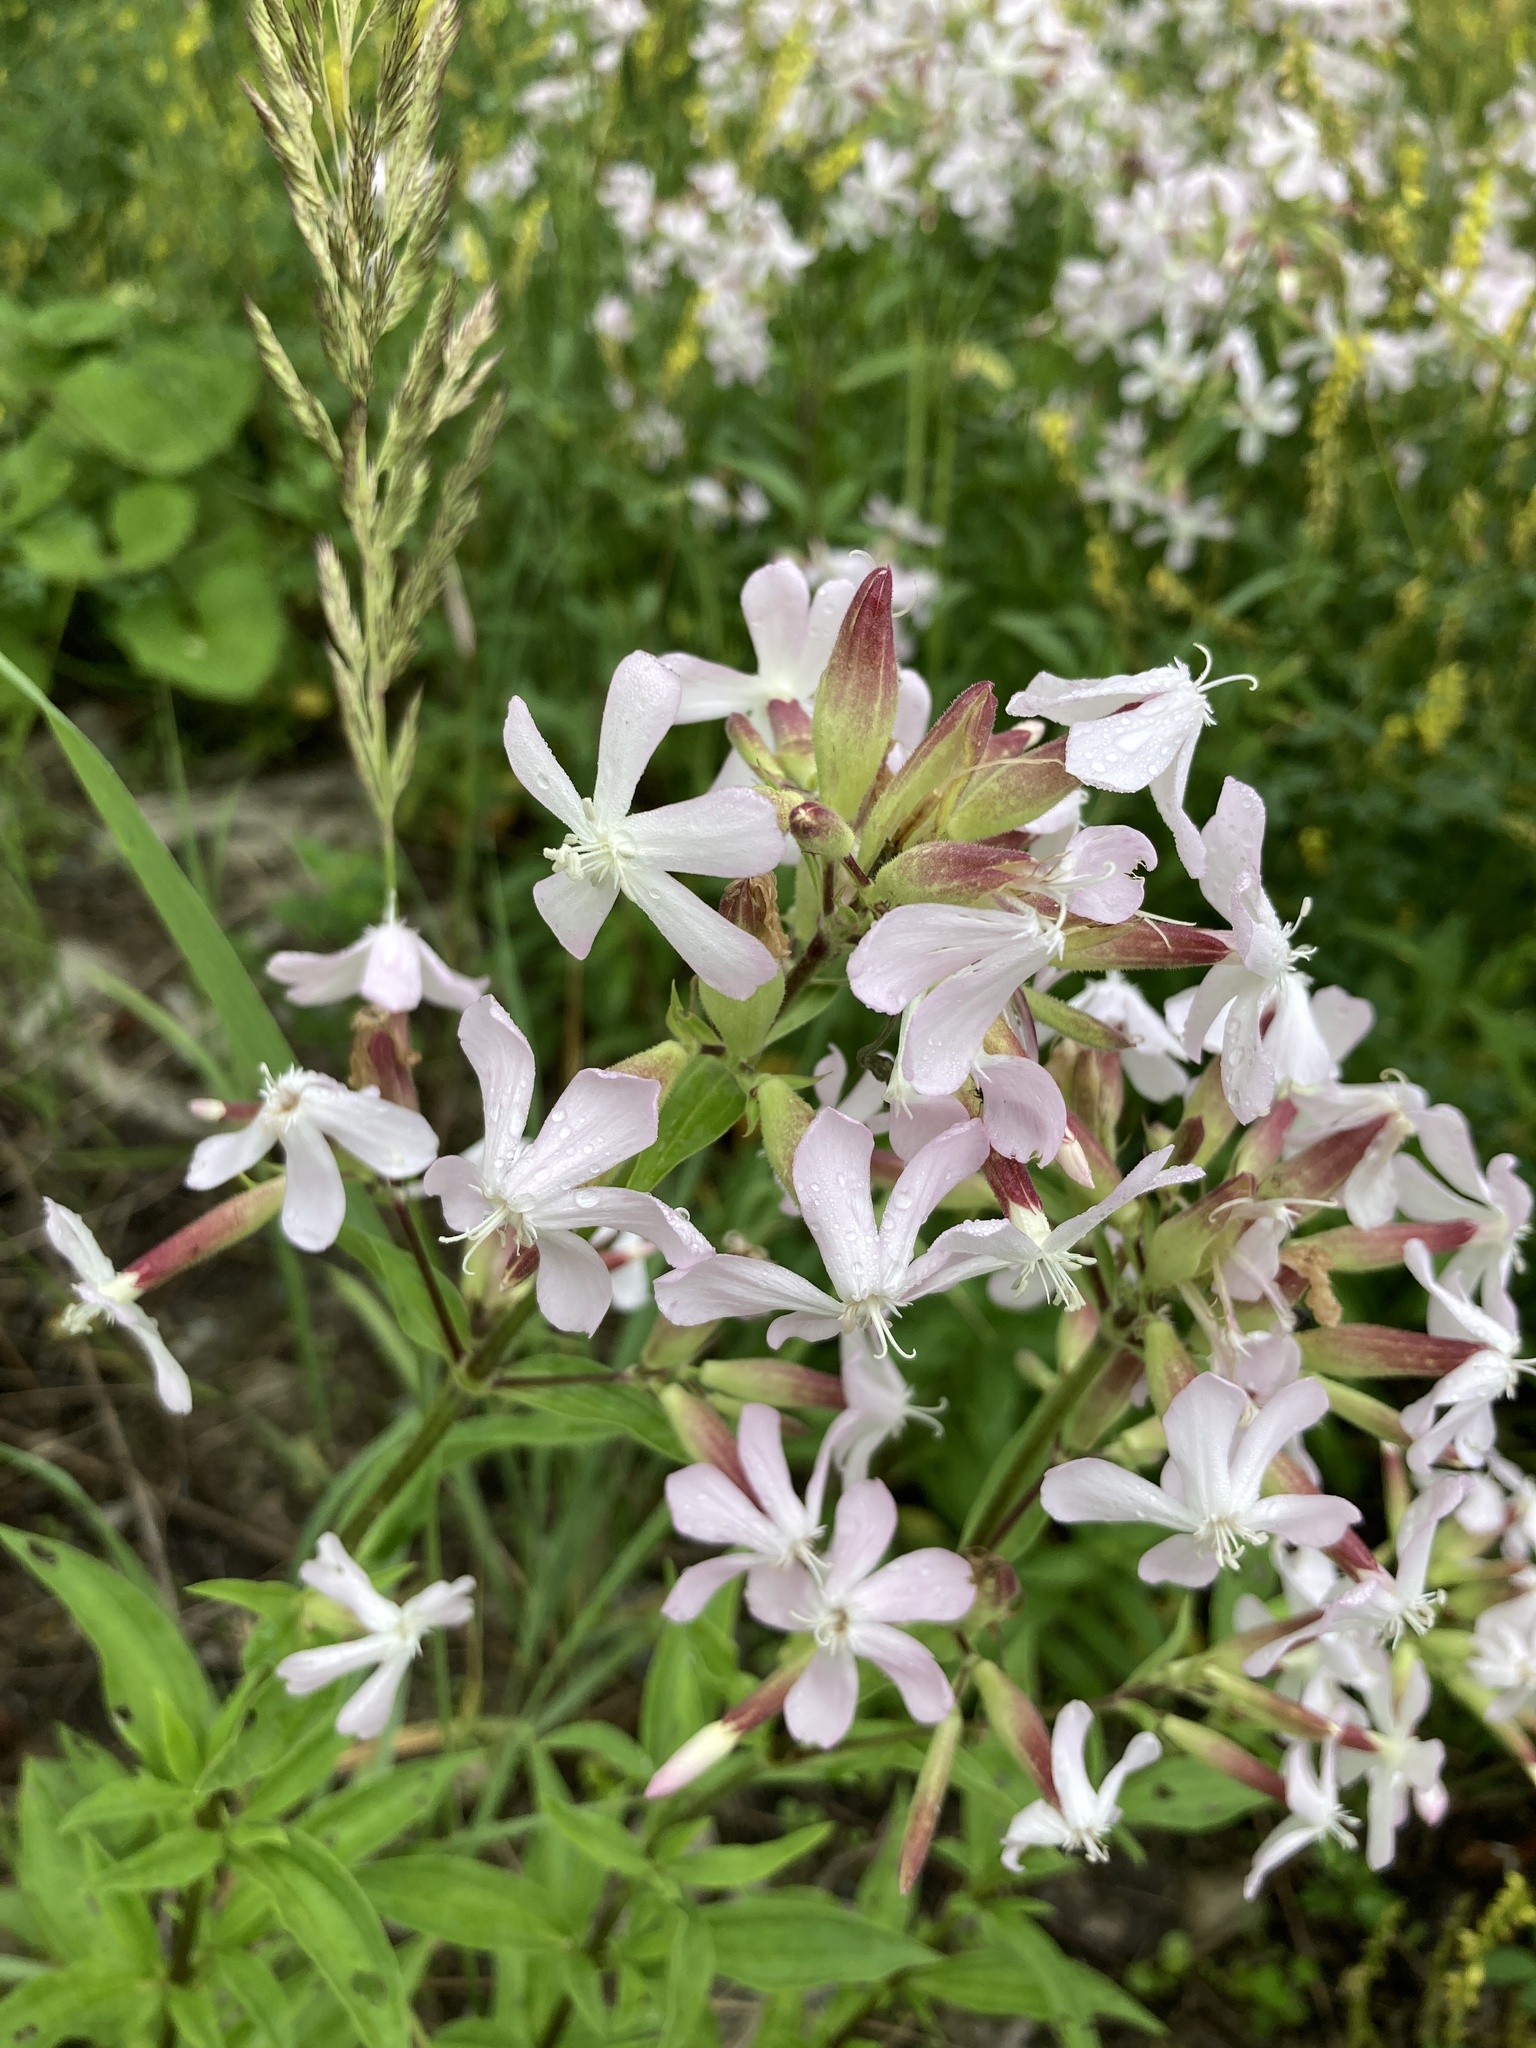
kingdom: Plantae
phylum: Tracheophyta
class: Magnoliopsida
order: Caryophyllales
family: Caryophyllaceae
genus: Saponaria
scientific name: Saponaria officinalis
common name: Soapwort
